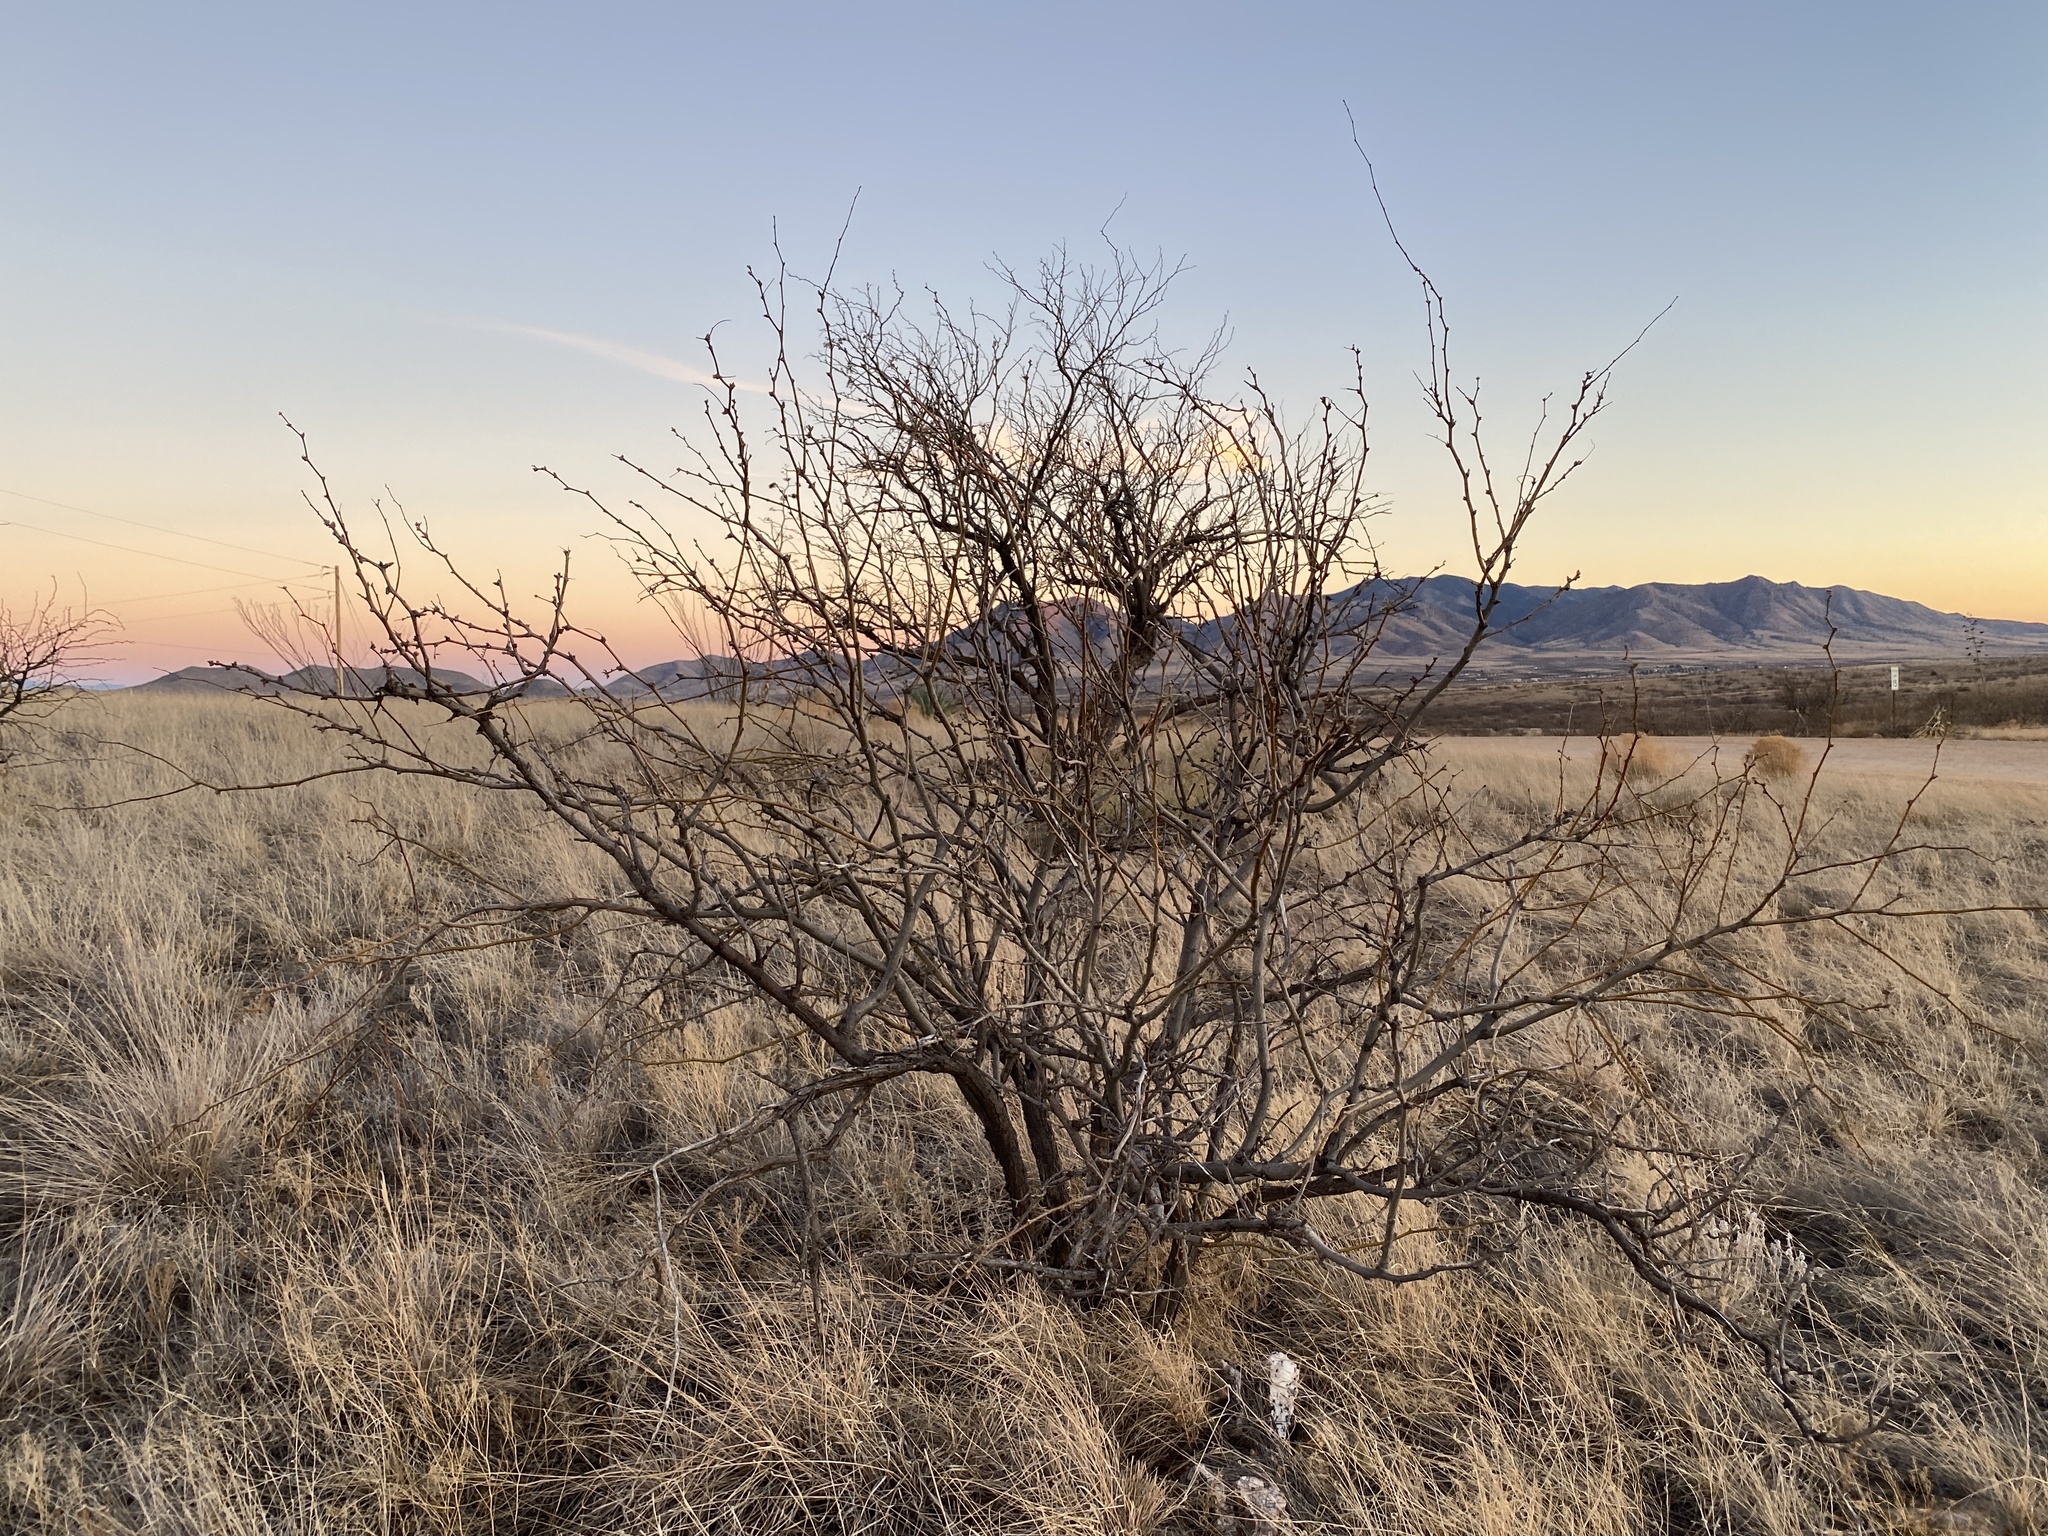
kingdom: Plantae
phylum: Tracheophyta
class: Magnoliopsida
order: Fabales
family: Fabaceae
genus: Prosopis
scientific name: Prosopis velutina
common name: Velvet mesquite
